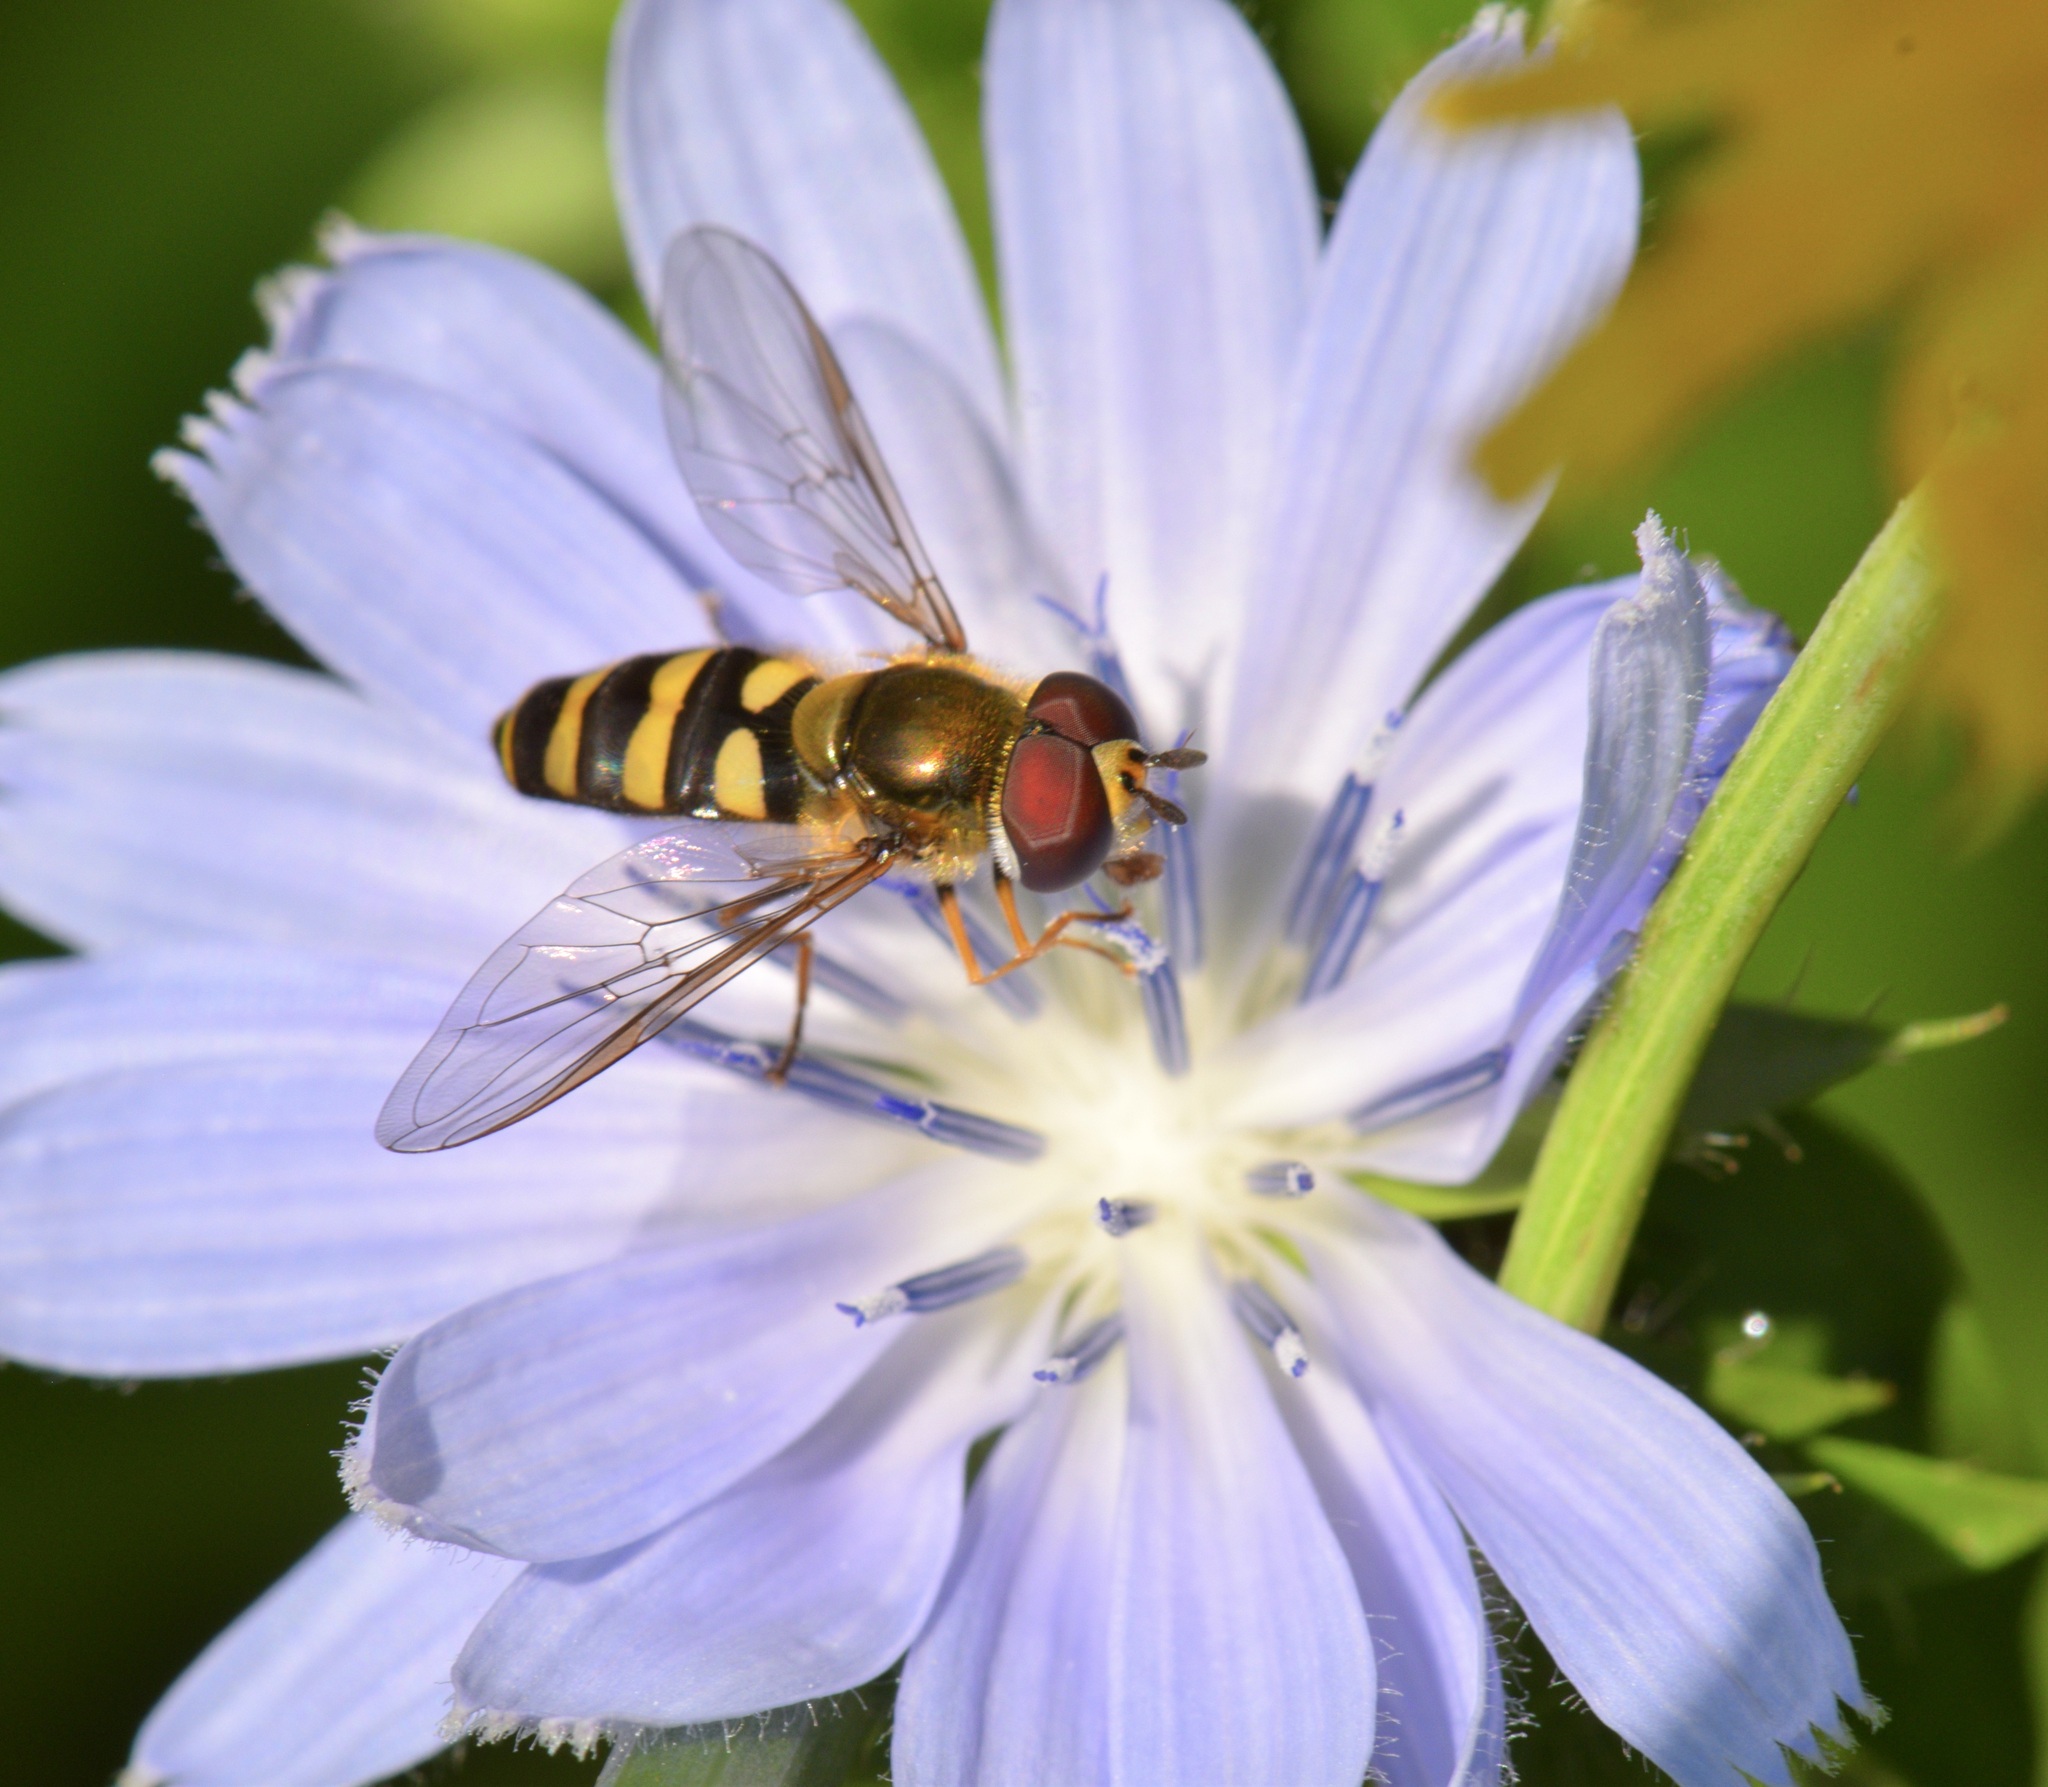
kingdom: Animalia
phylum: Arthropoda
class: Insecta
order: Diptera
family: Syrphidae
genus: Eupeodes
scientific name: Eupeodes
